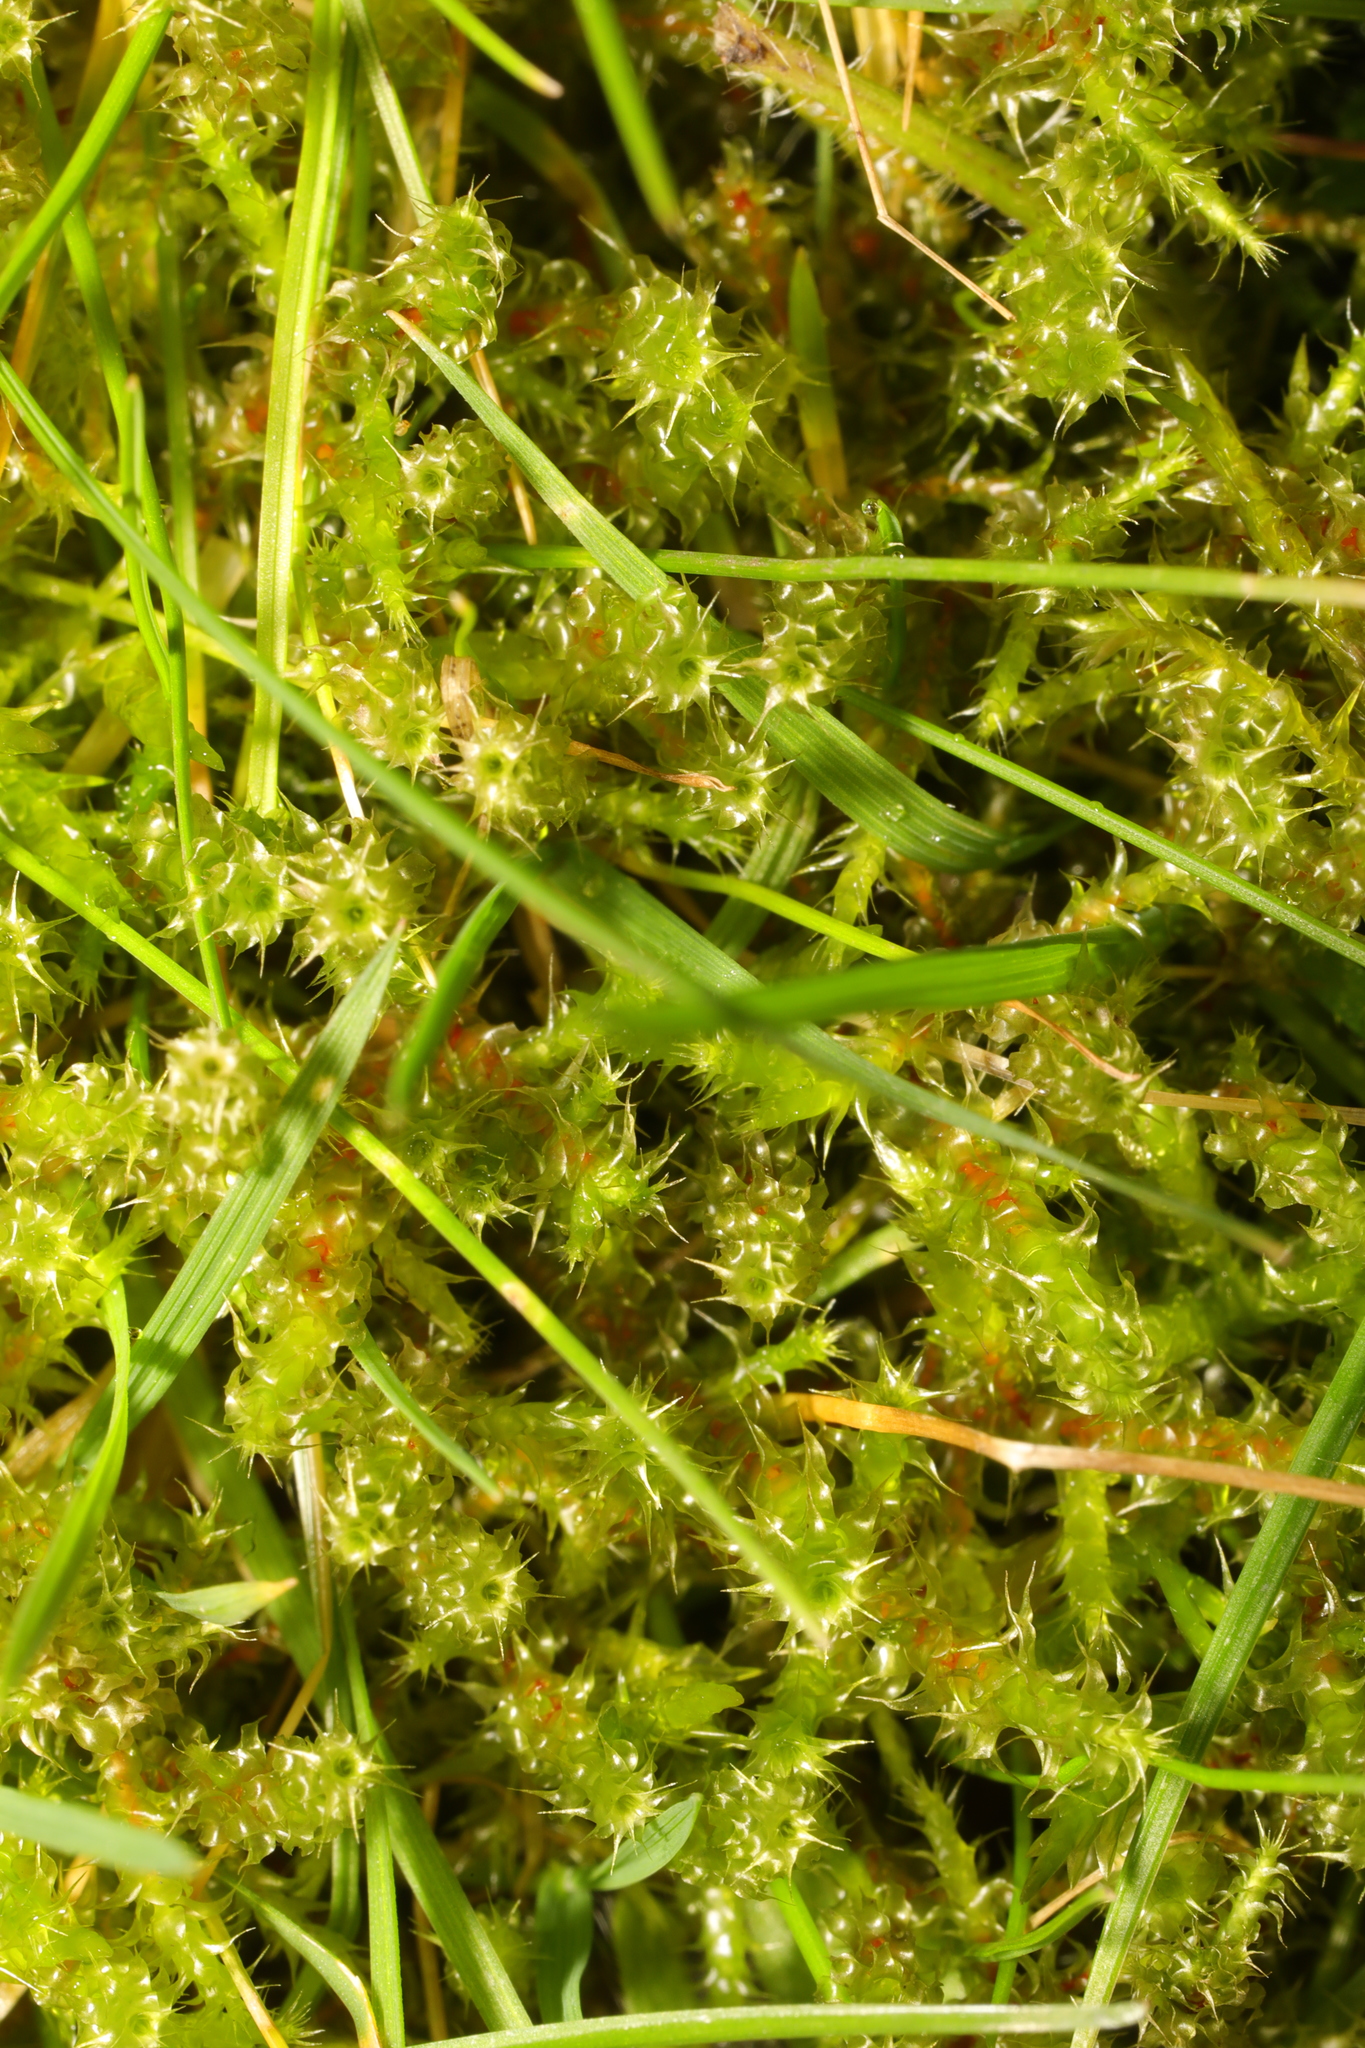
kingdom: Plantae
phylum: Bryophyta
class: Bryopsida
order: Hypnales
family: Hylocomiaceae
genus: Rhytidiadelphus
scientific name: Rhytidiadelphus squarrosus
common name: Springy turf-moss
